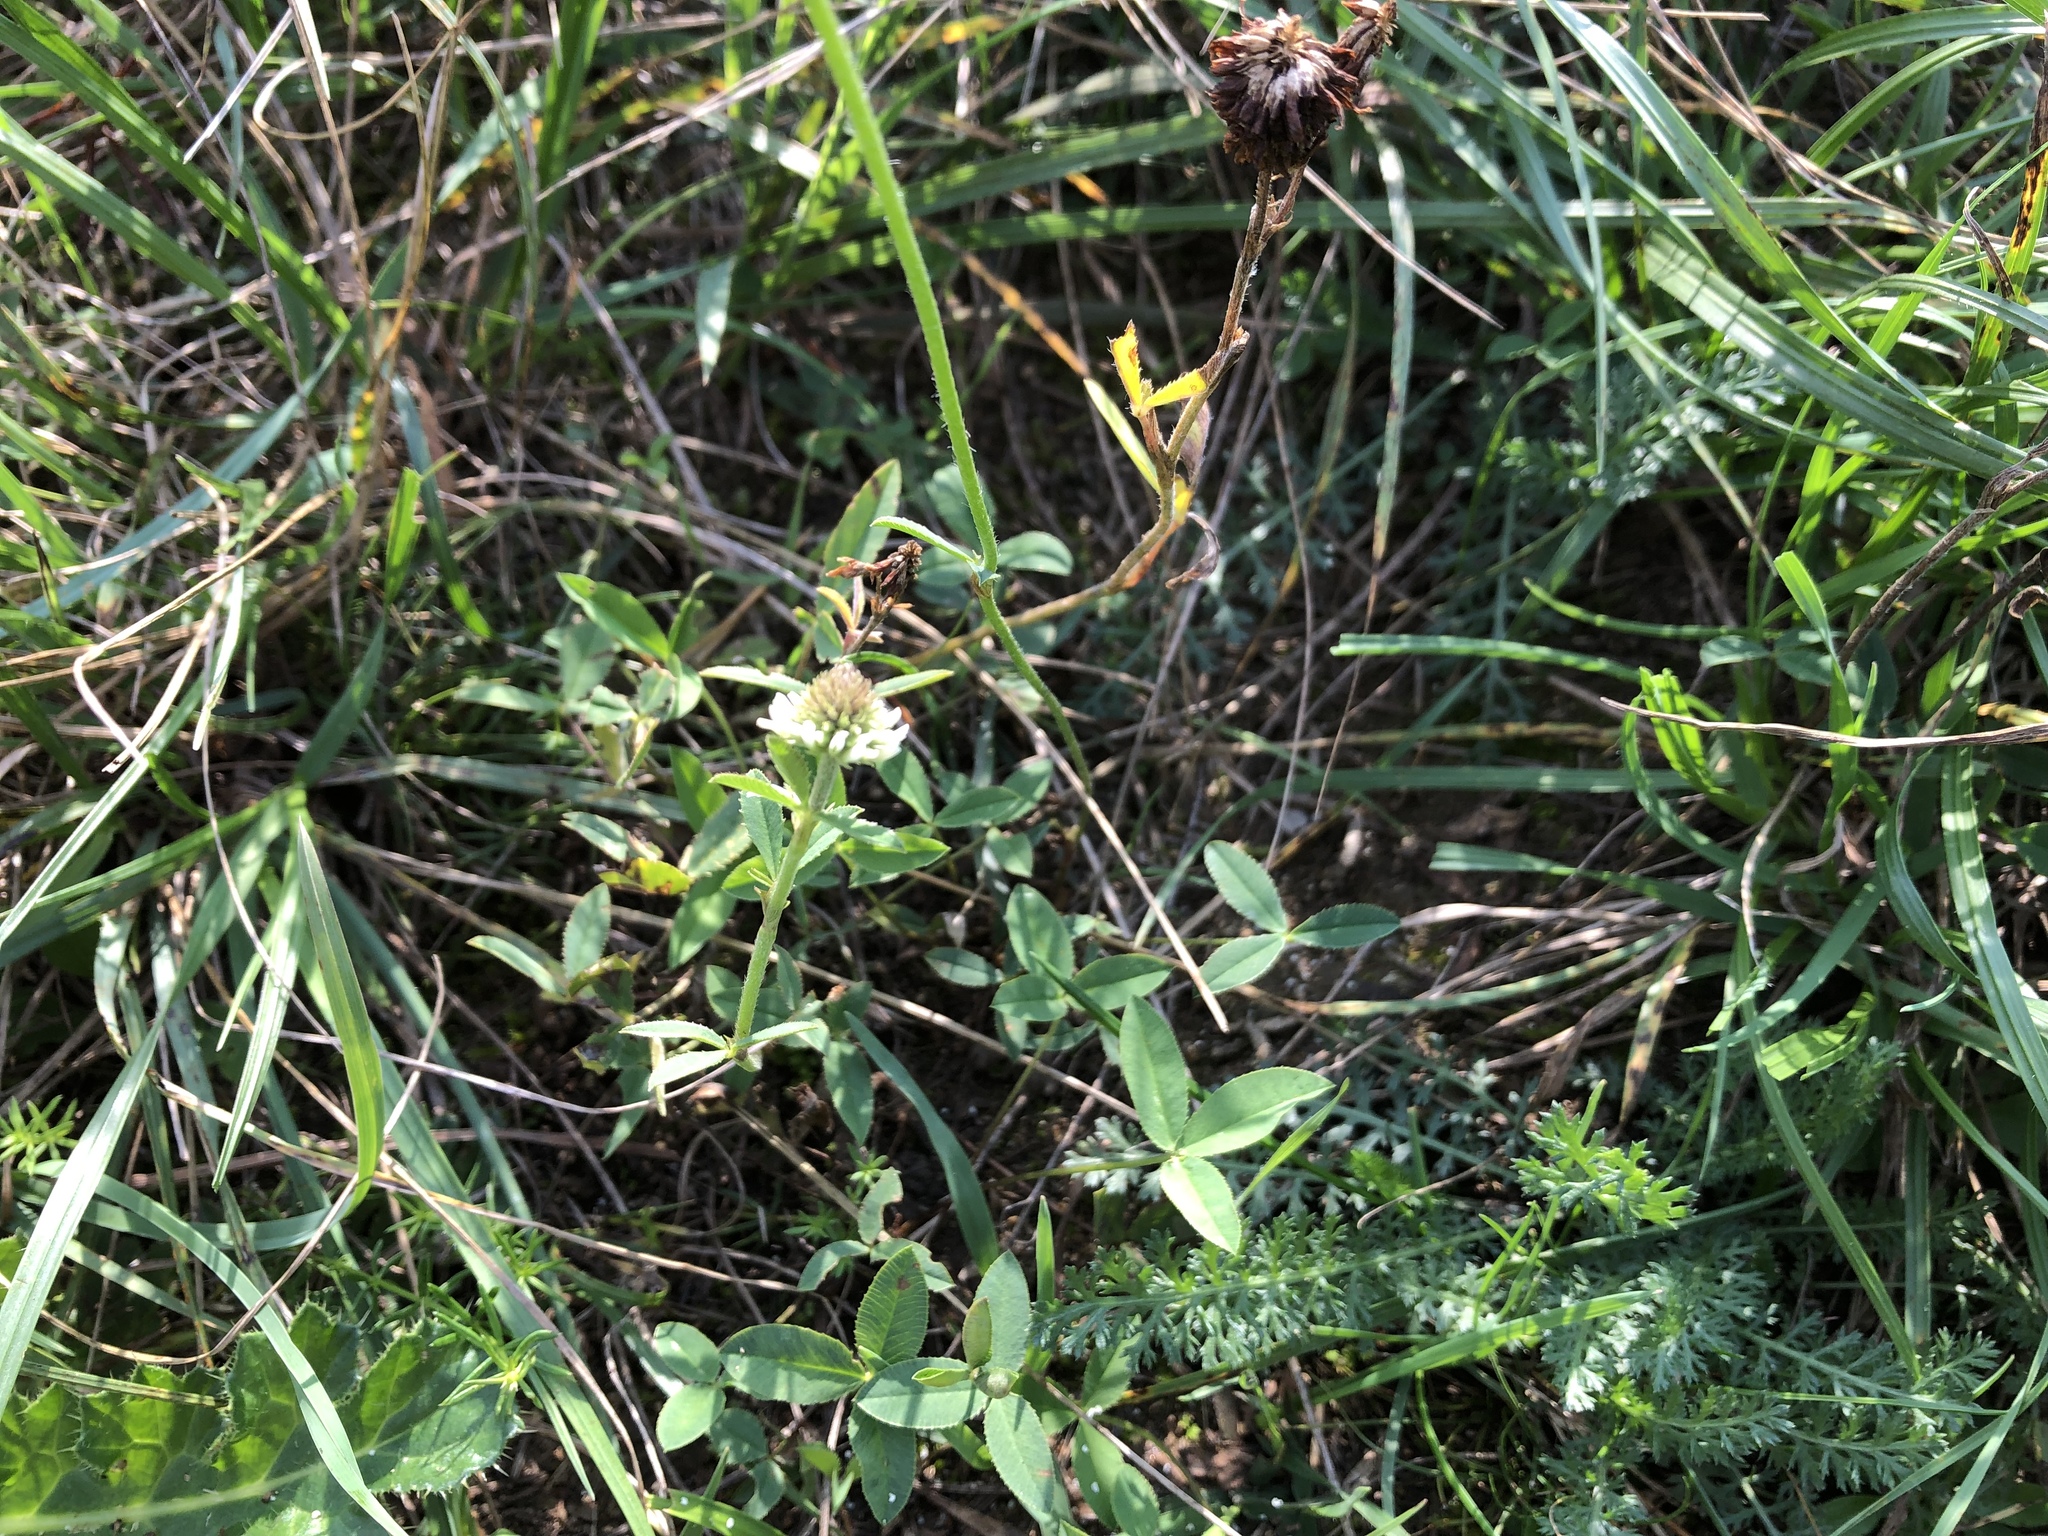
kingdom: Plantae
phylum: Tracheophyta
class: Magnoliopsida
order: Fabales
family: Fabaceae
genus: Trifolium
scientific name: Trifolium montanum
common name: Mountain clover
